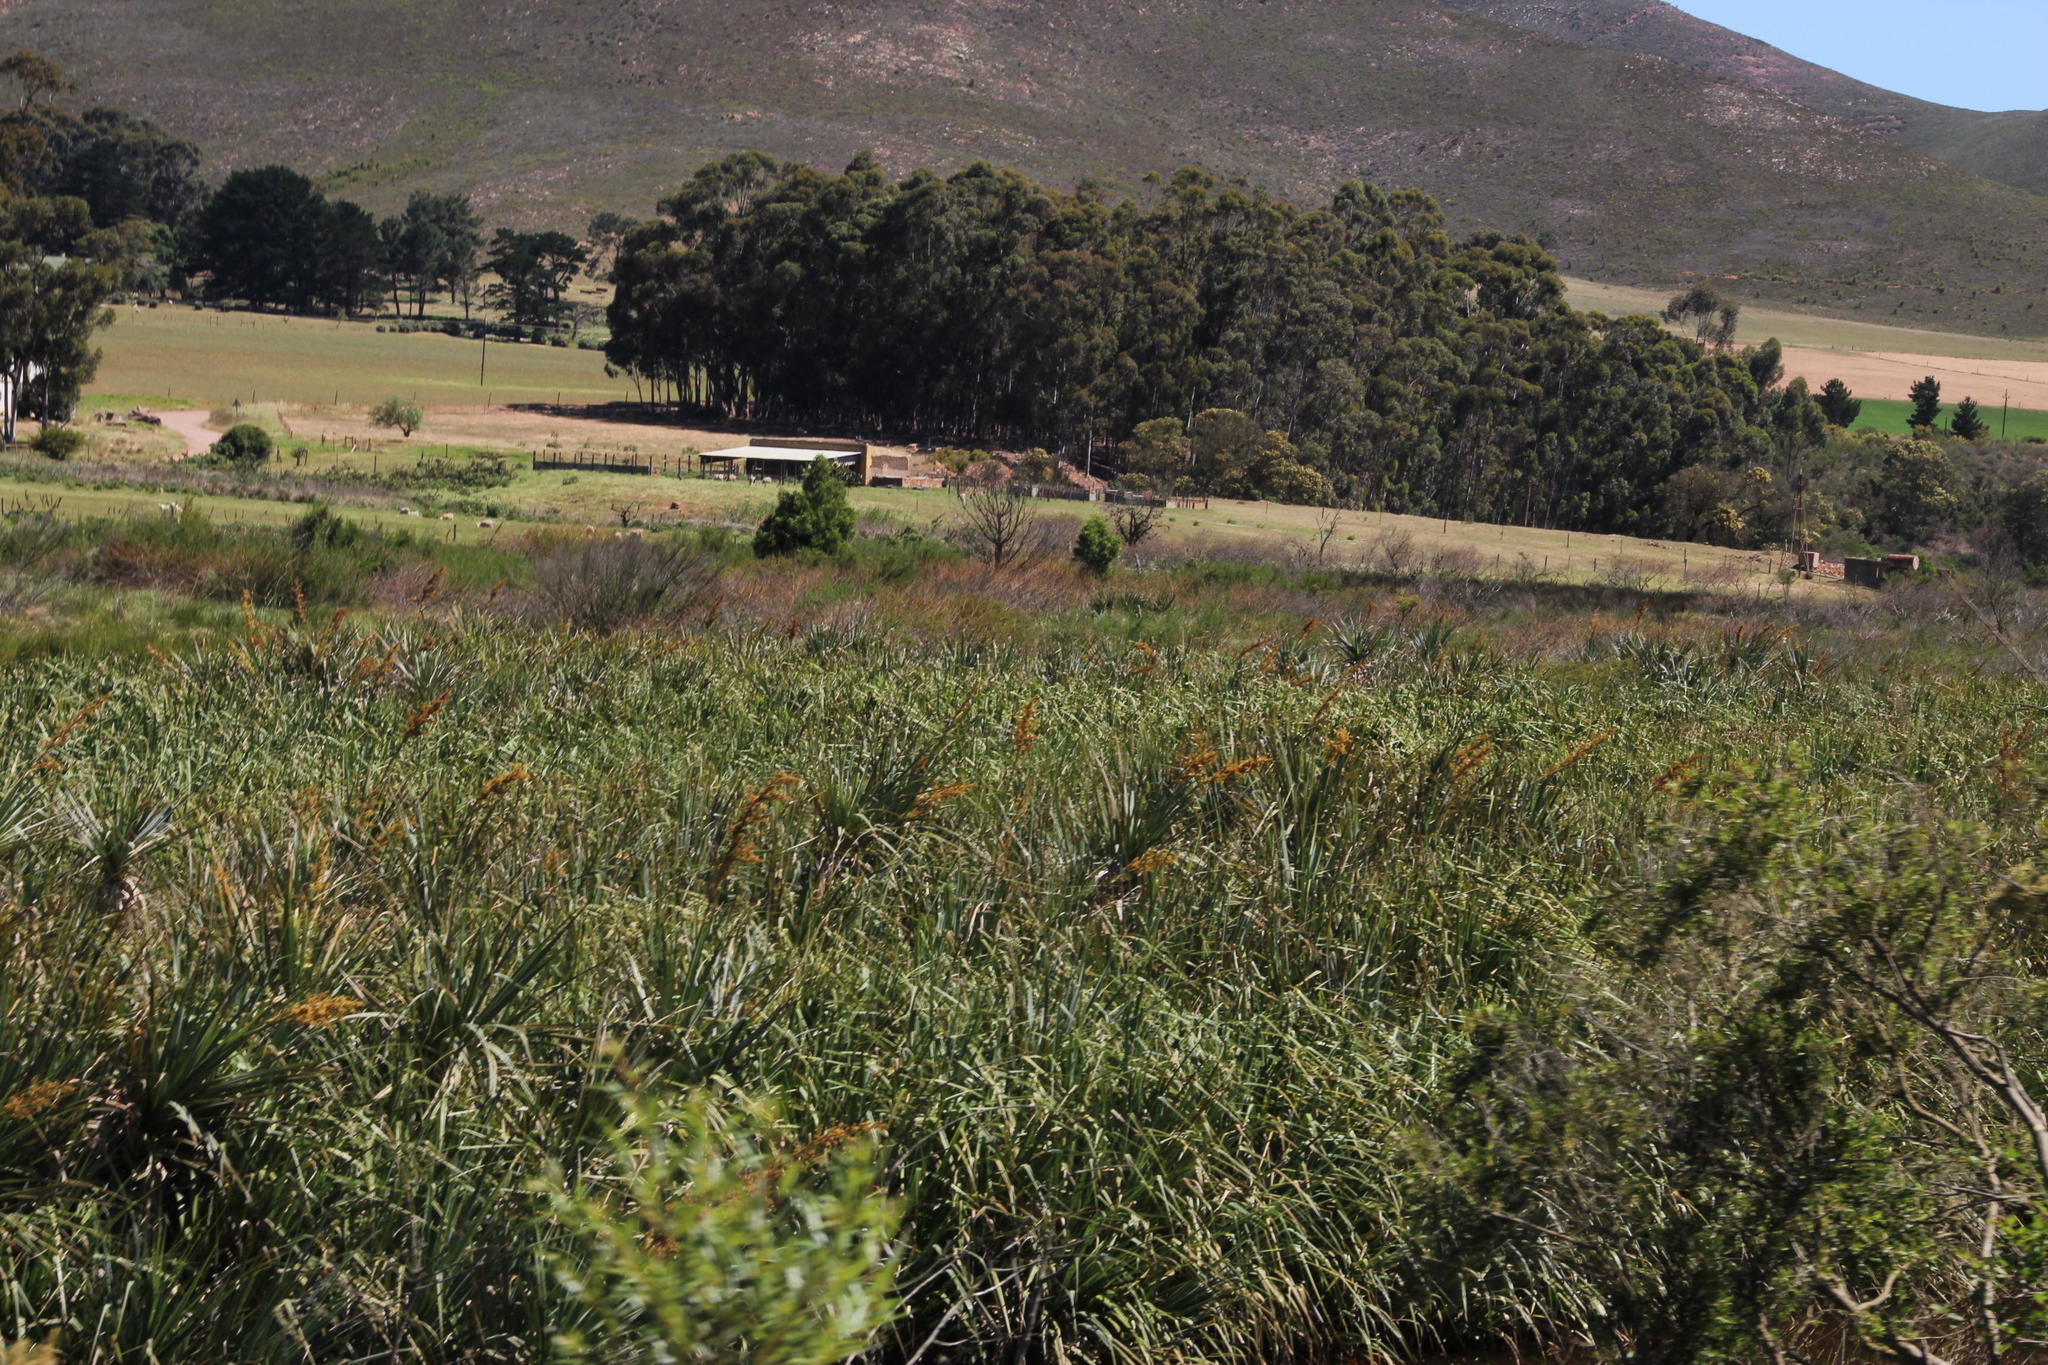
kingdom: Plantae
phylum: Tracheophyta
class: Liliopsida
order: Poales
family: Thurniaceae
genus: Prionium
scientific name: Prionium serratum
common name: Palmiet
